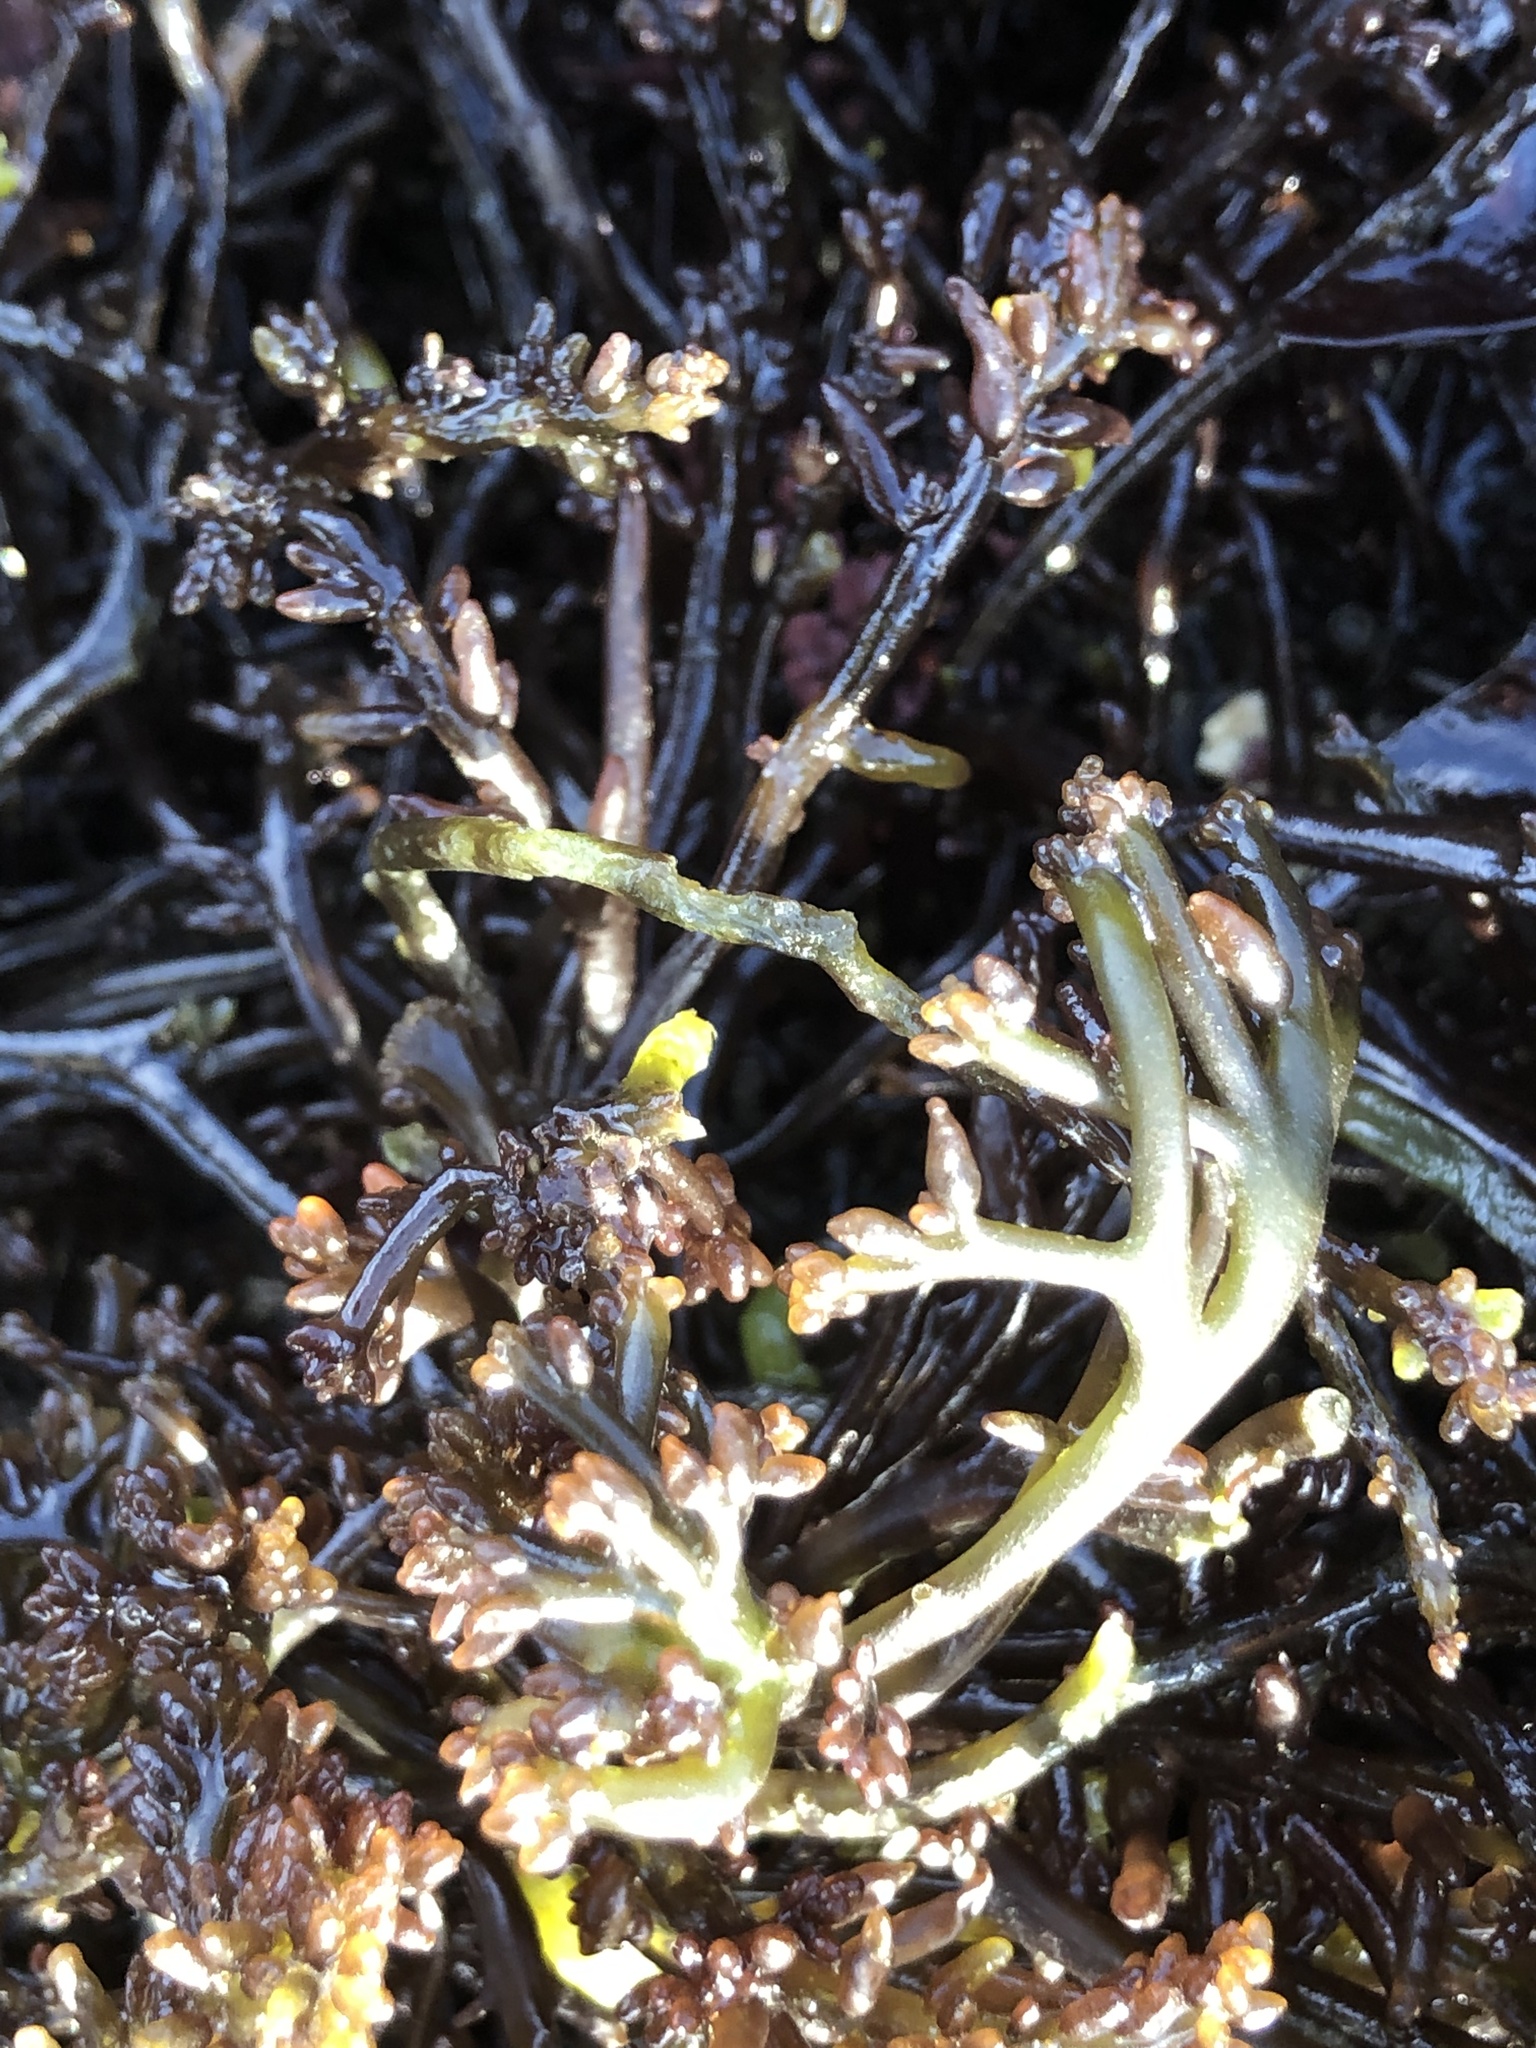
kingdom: Plantae
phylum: Rhodophyta
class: Florideophyceae
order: Rhodymeniales
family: Champiaceae
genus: Neogastroclonium
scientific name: Neogastroclonium subarticulatum
